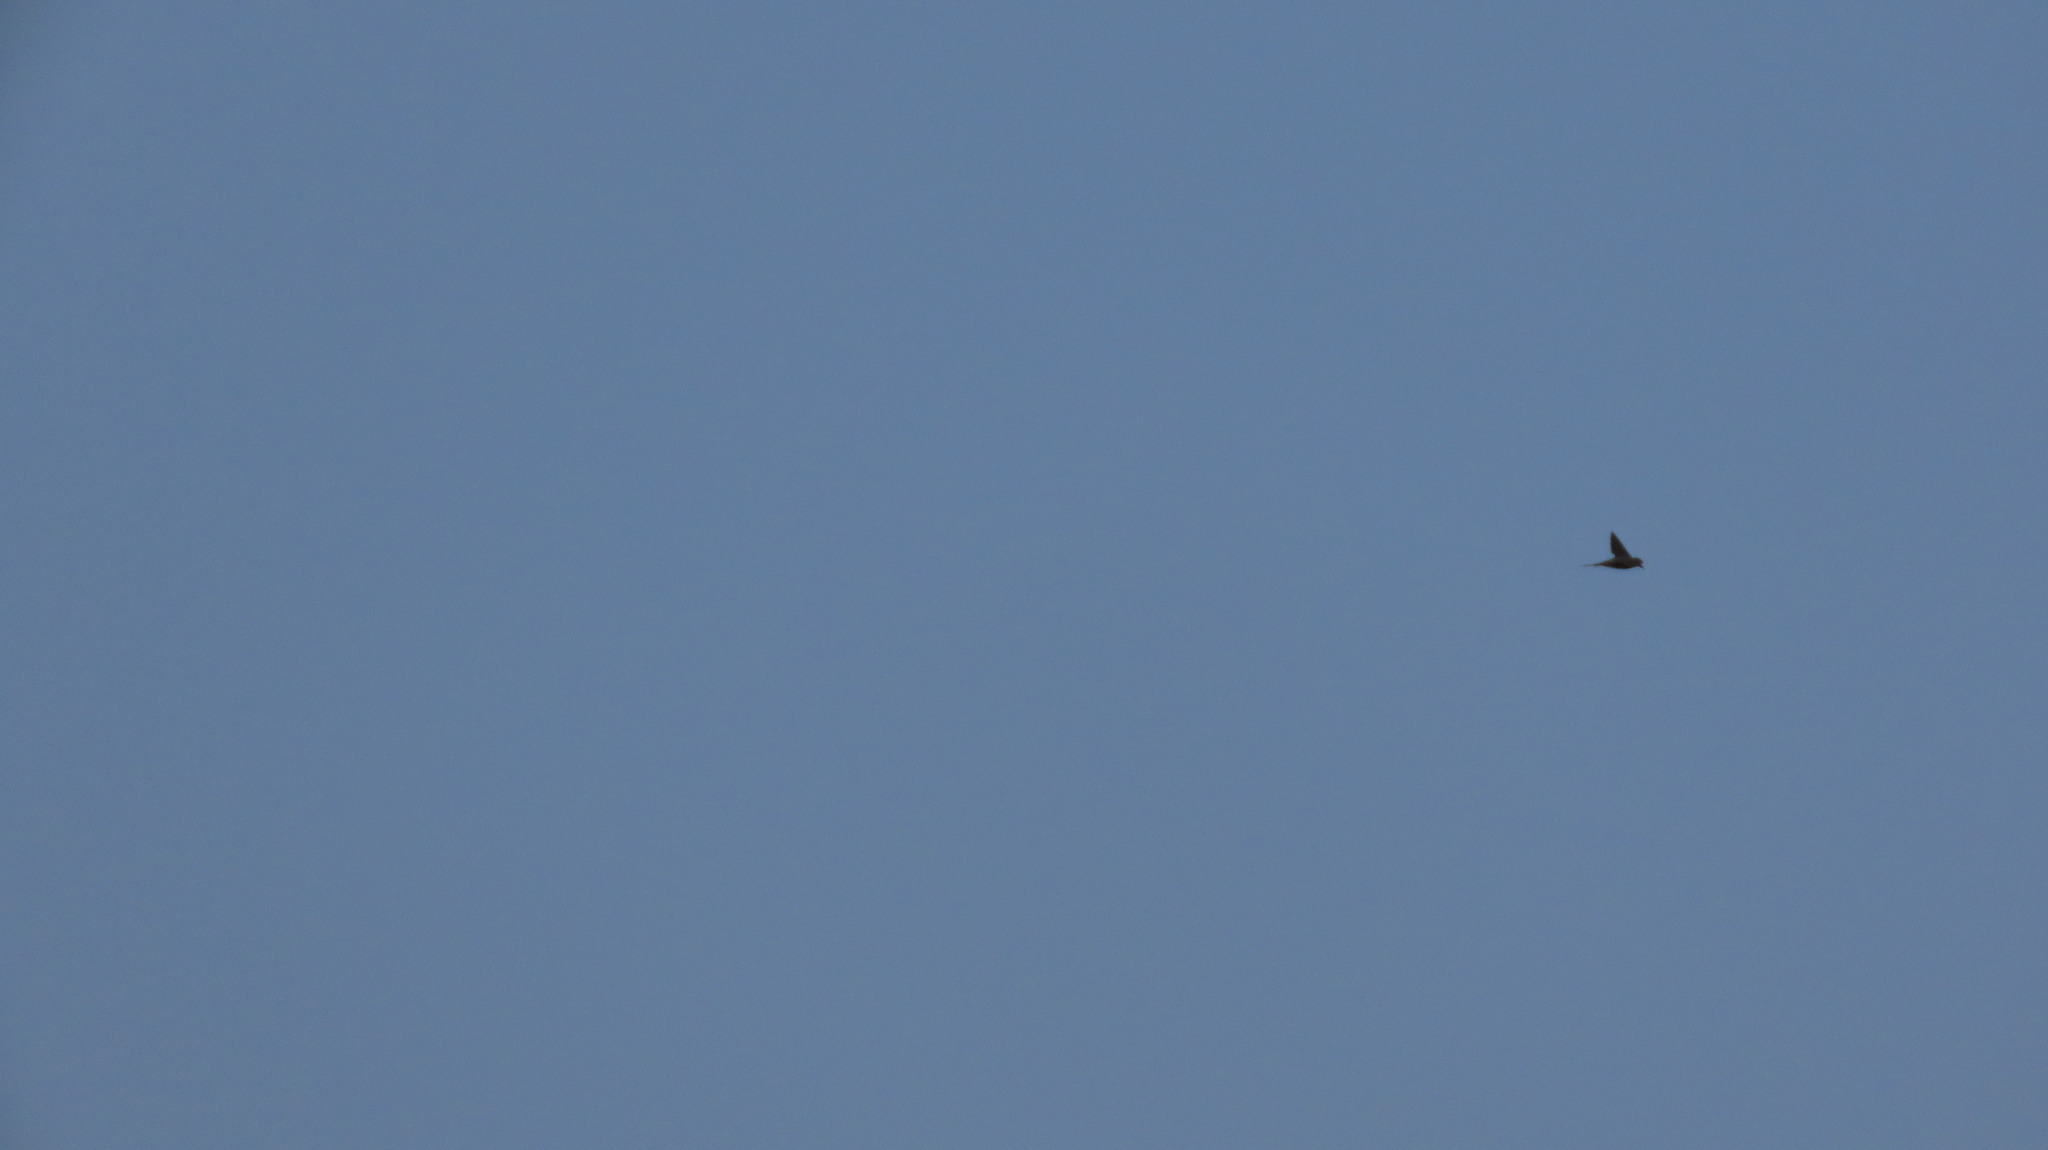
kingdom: Animalia
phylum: Chordata
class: Aves
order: Apodiformes
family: Apodidae
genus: Cypsiurus
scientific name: Cypsiurus balasiensis
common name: Asian palm swift
